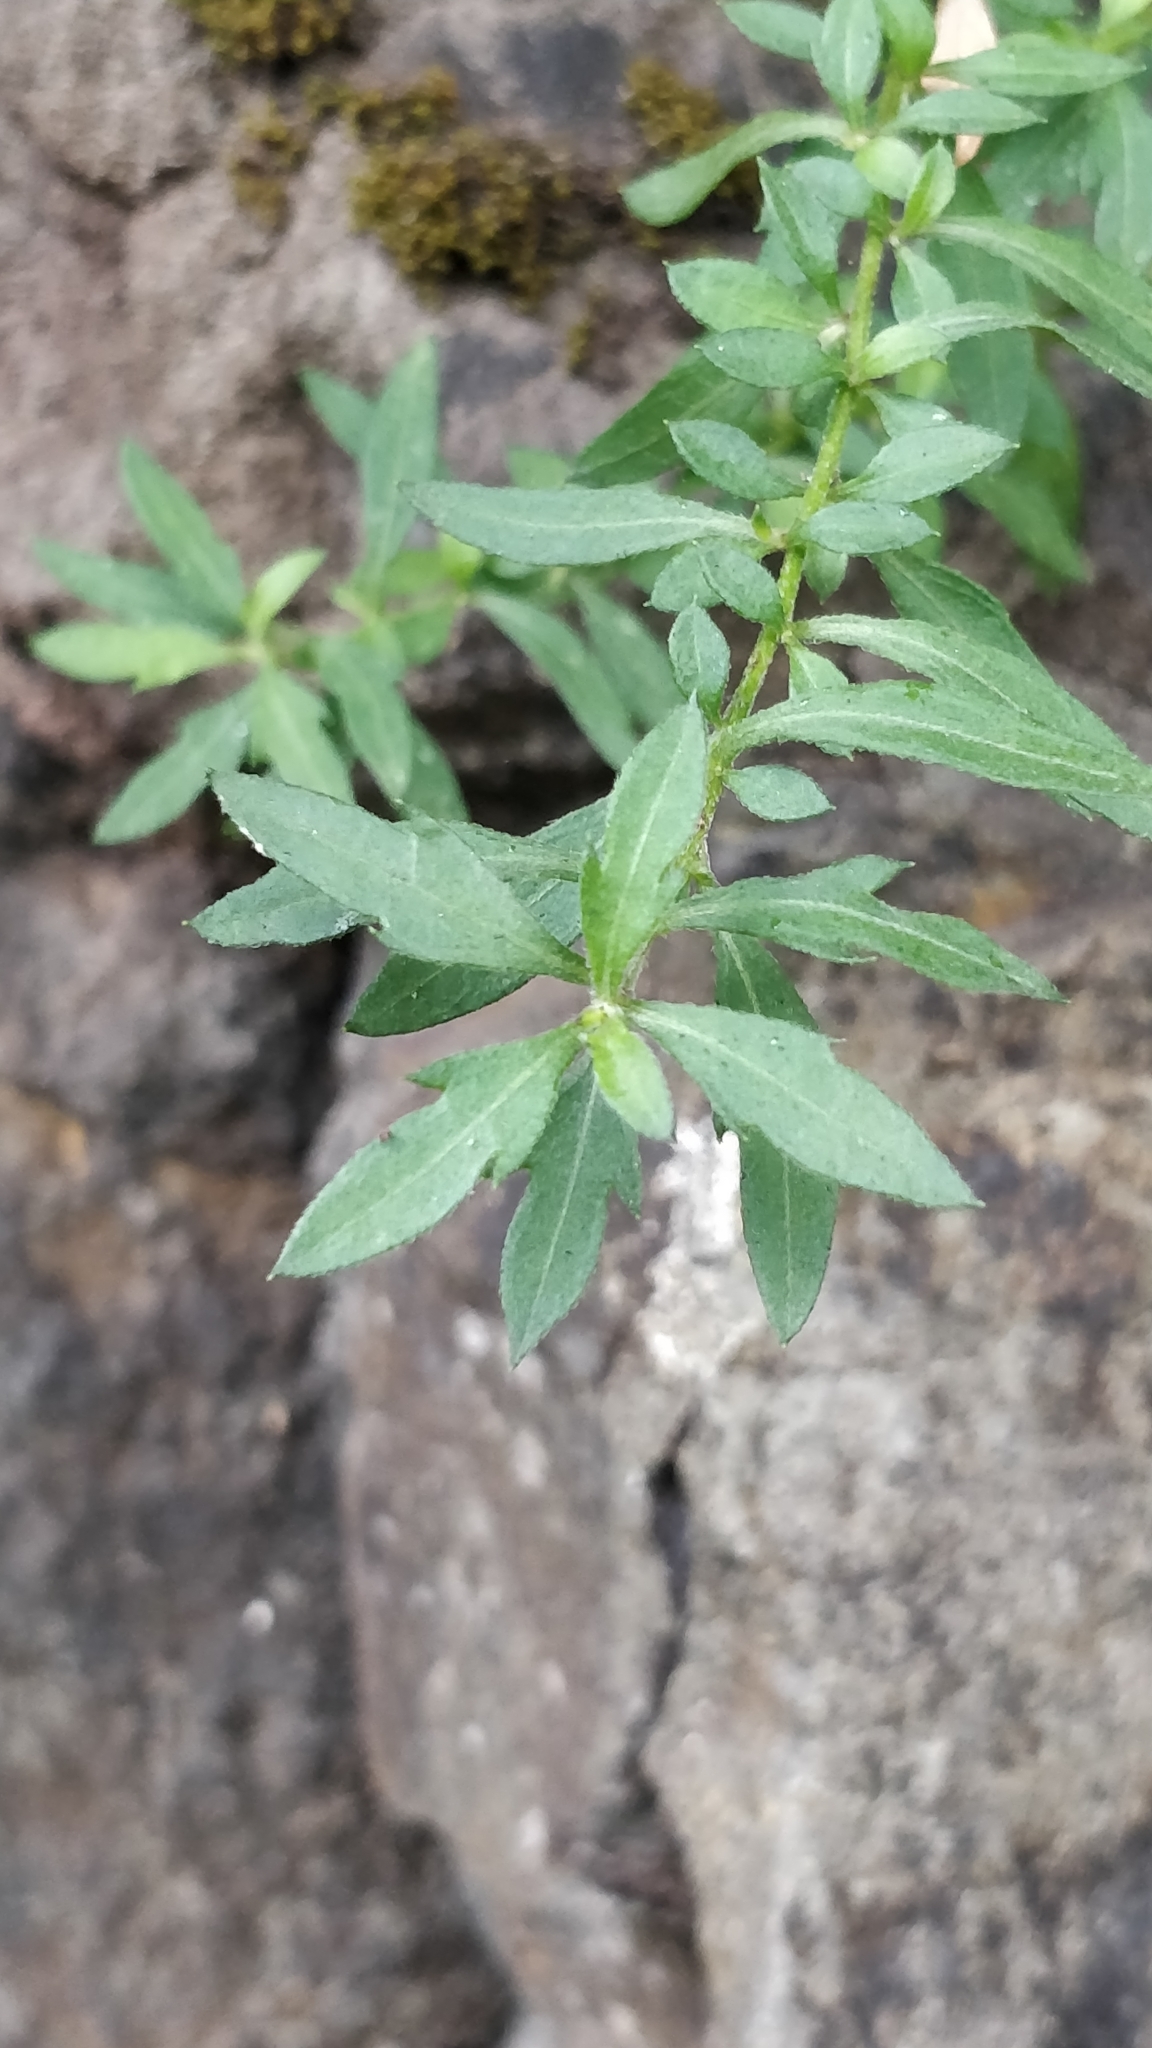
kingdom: Plantae
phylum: Tracheophyta
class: Magnoliopsida
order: Asterales
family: Asteraceae
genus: Erigeron
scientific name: Erigeron karvinskianus
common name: Mexican fleabane
